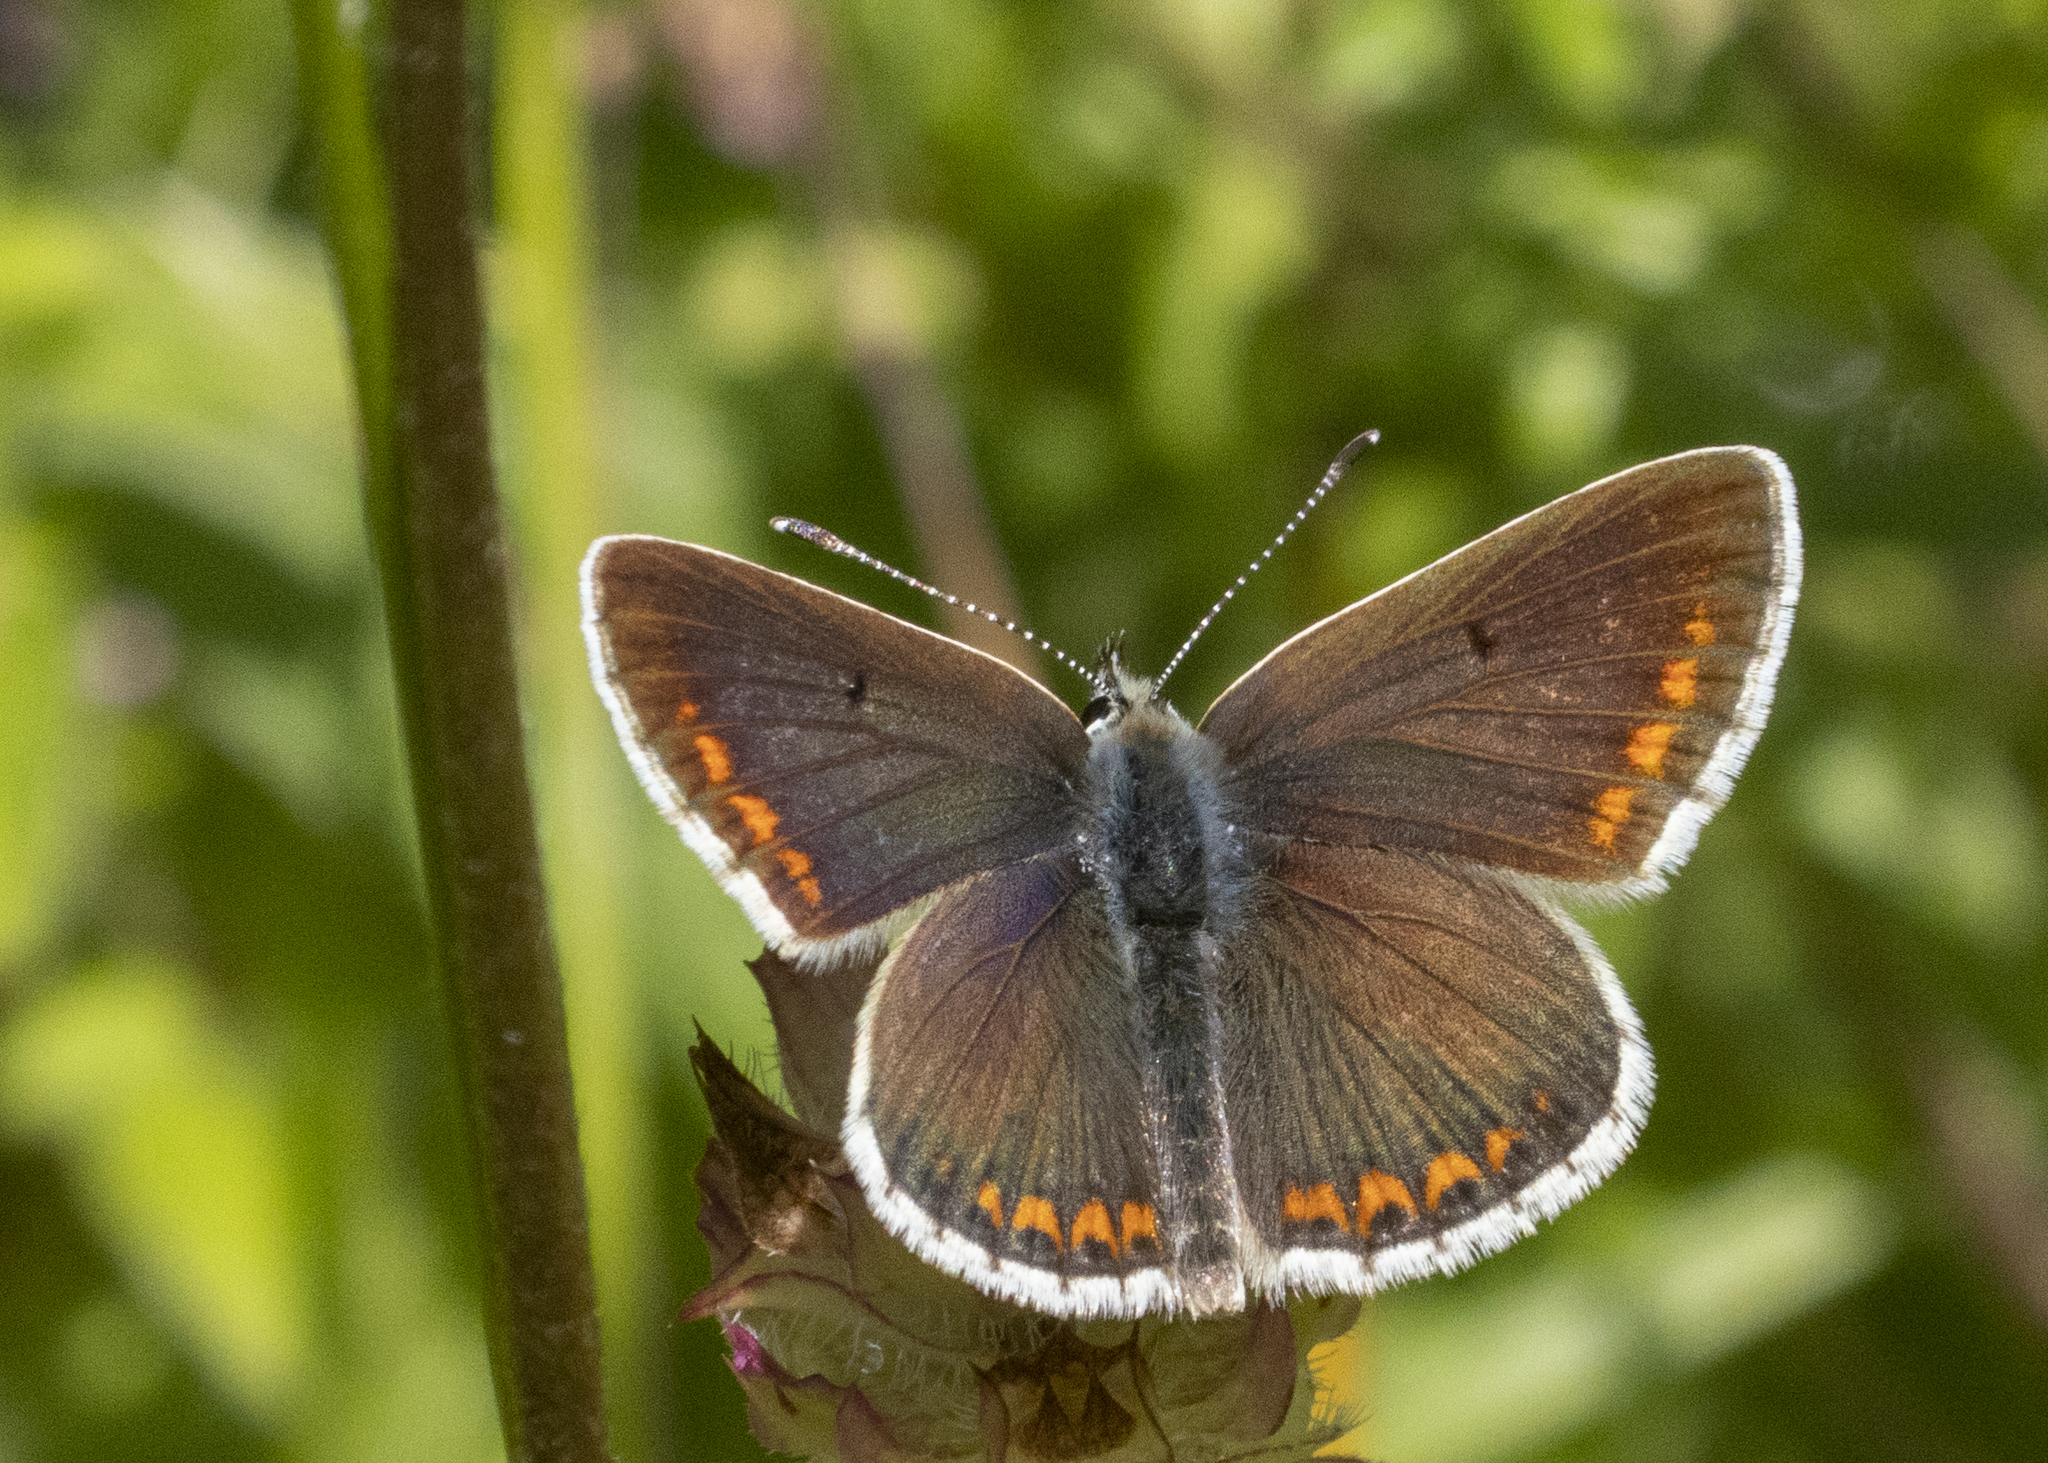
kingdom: Animalia
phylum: Arthropoda
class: Insecta
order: Lepidoptera
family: Lycaenidae
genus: Aricia
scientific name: Aricia agestis
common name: Brown argus
